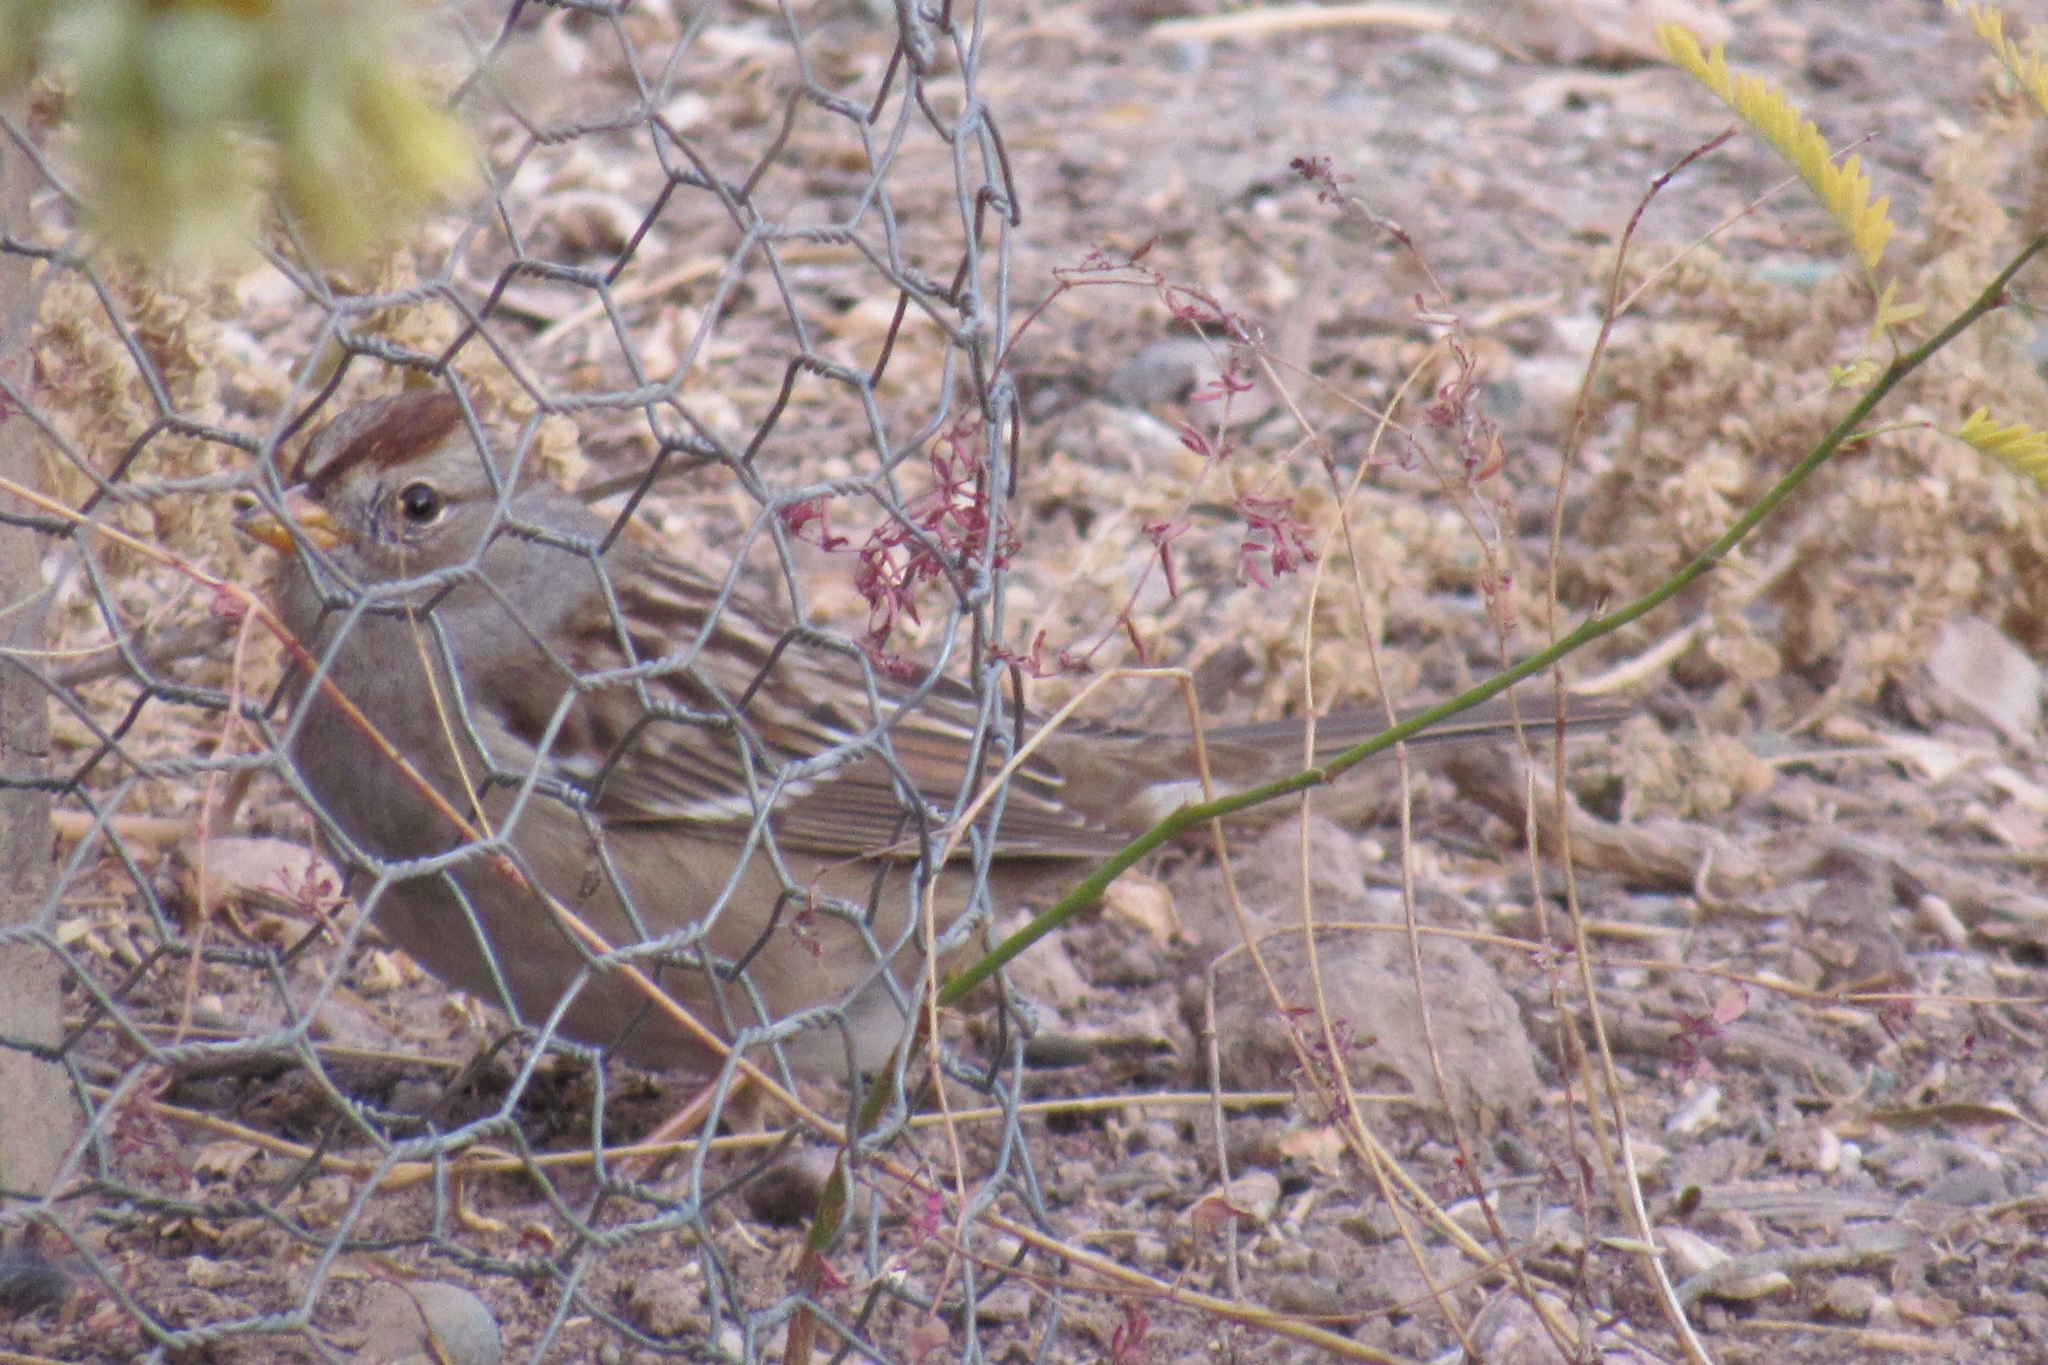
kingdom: Animalia
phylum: Chordata
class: Aves
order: Passeriformes
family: Passerellidae
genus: Zonotrichia
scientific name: Zonotrichia leucophrys
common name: White-crowned sparrow
